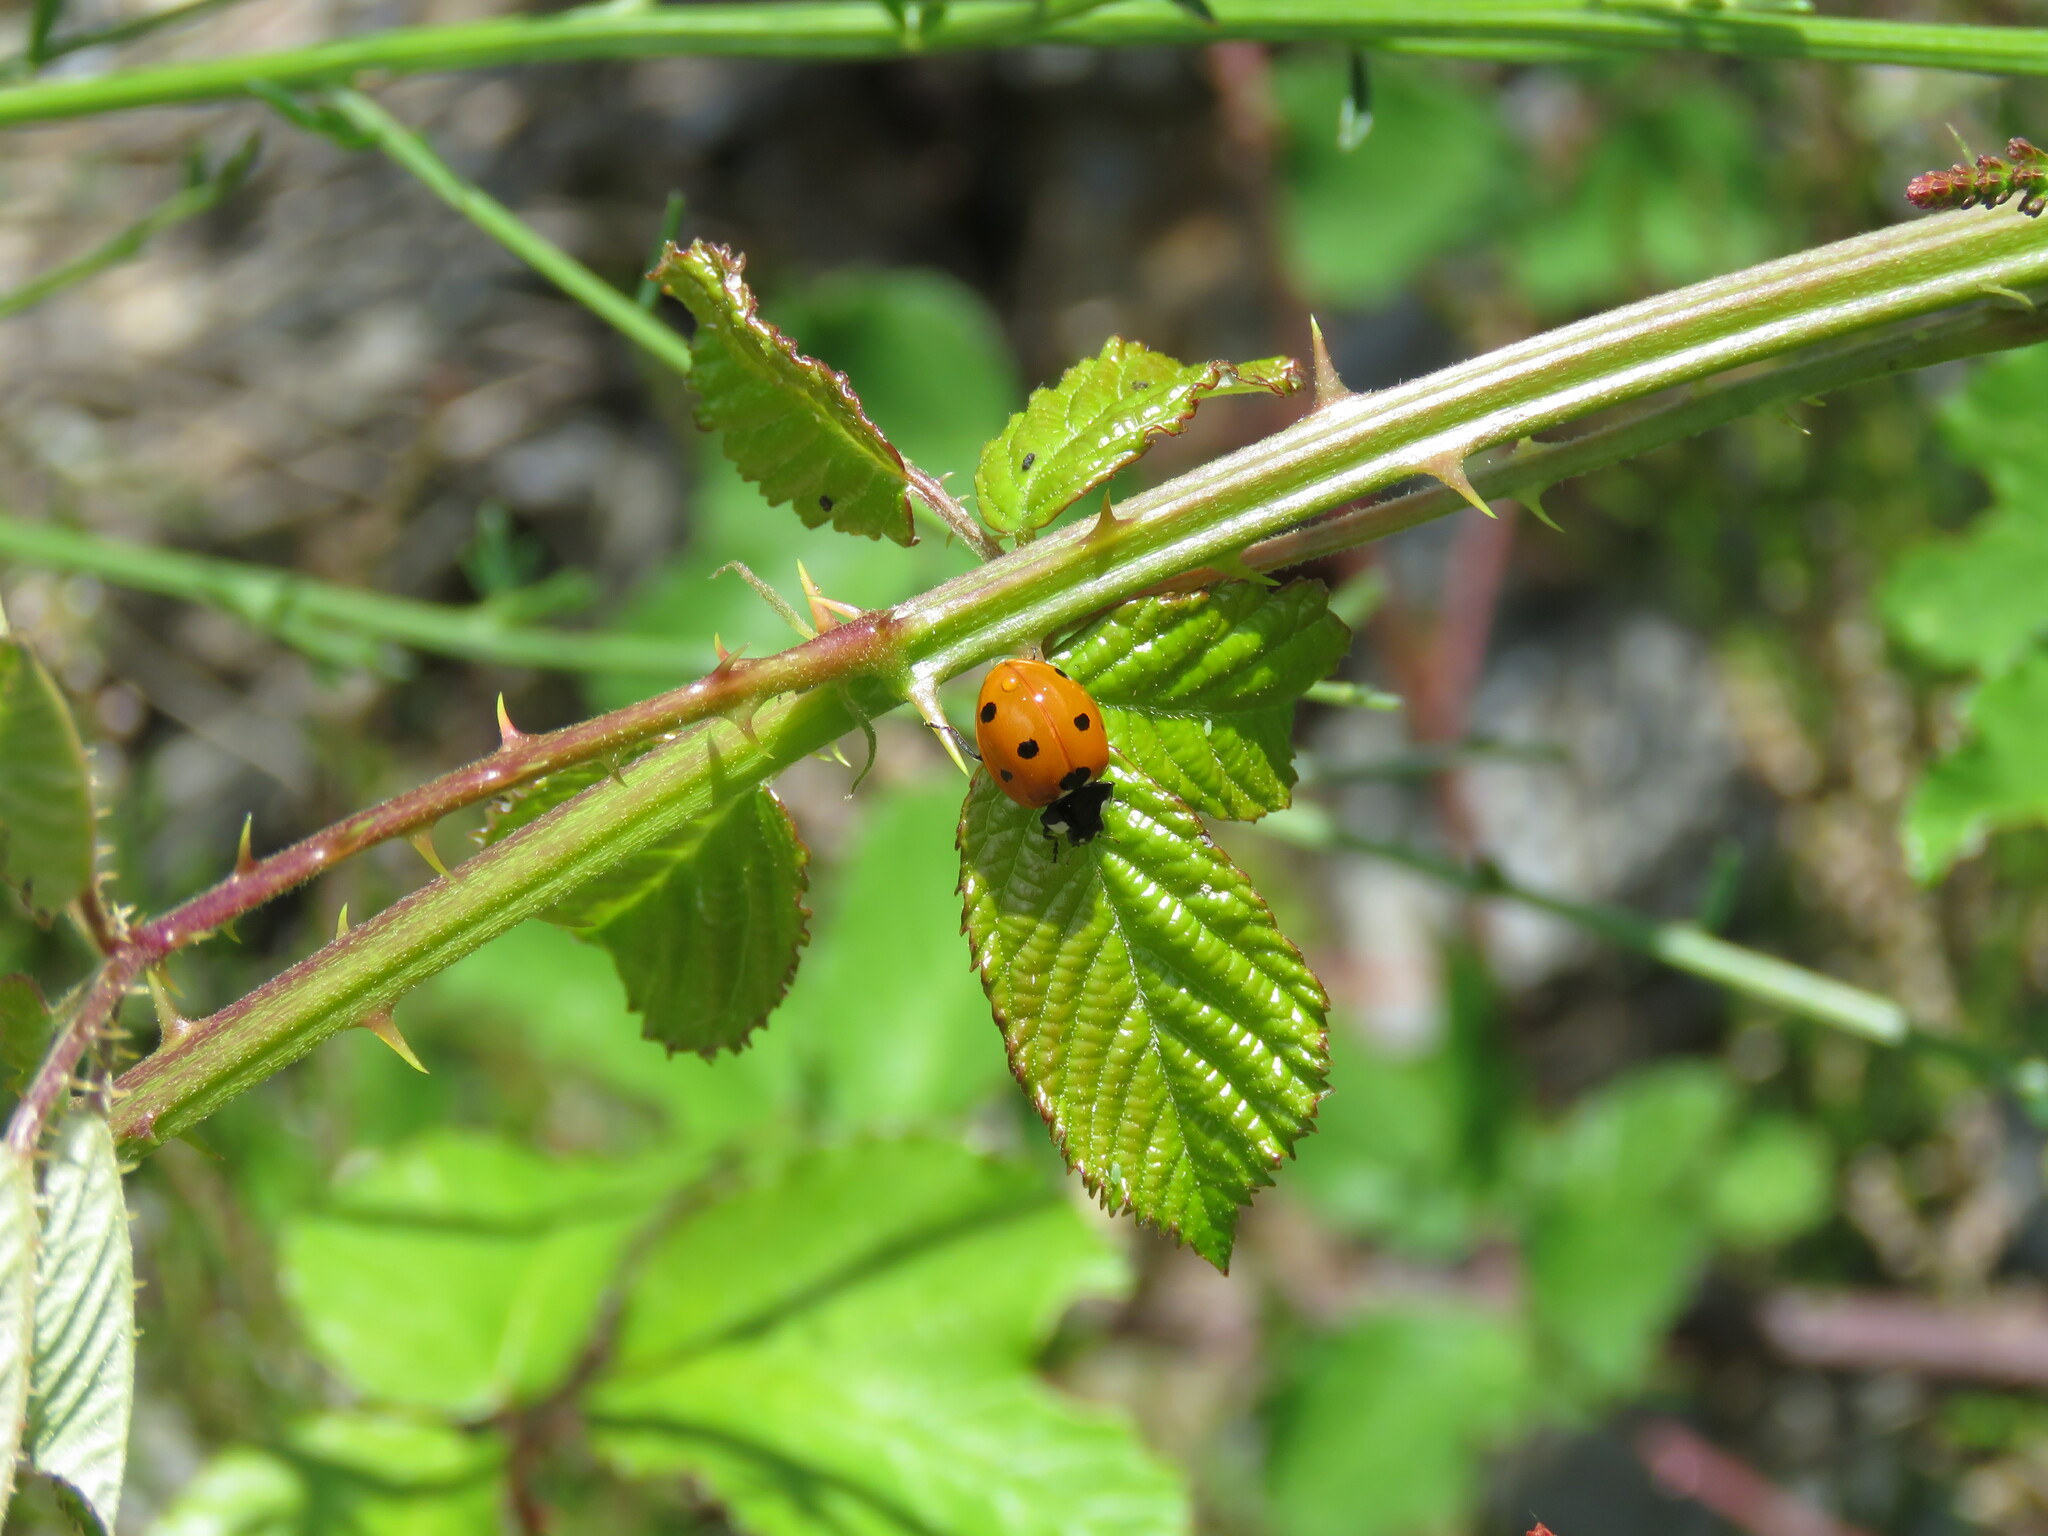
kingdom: Animalia
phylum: Arthropoda
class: Insecta
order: Coleoptera
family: Coccinellidae
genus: Coccinella
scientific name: Coccinella septempunctata
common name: Sevenspotted lady beetle
